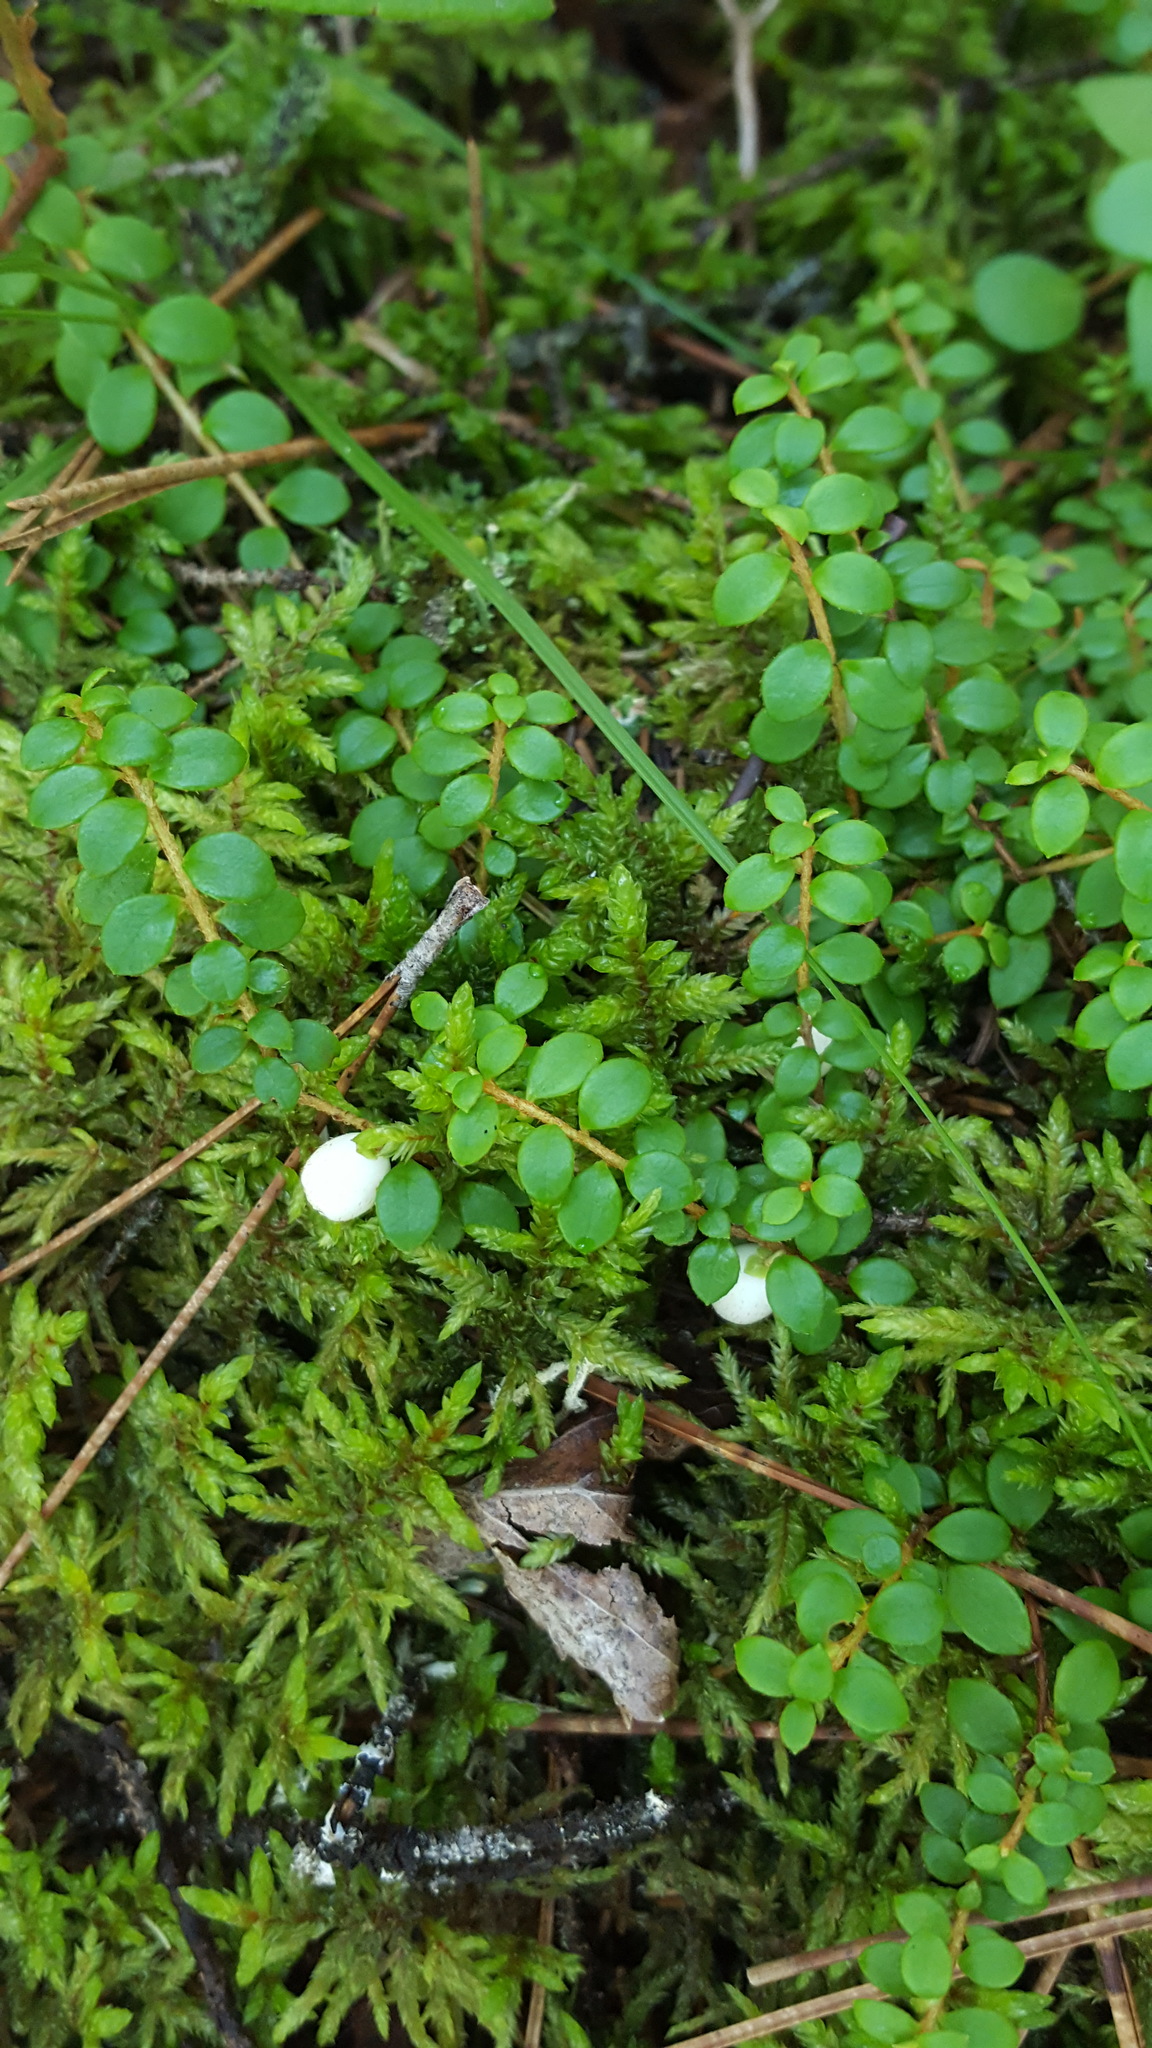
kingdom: Plantae
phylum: Tracheophyta
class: Magnoliopsida
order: Ericales
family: Ericaceae
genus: Gaultheria
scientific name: Gaultheria hispidula
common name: Cancer wintergreen
